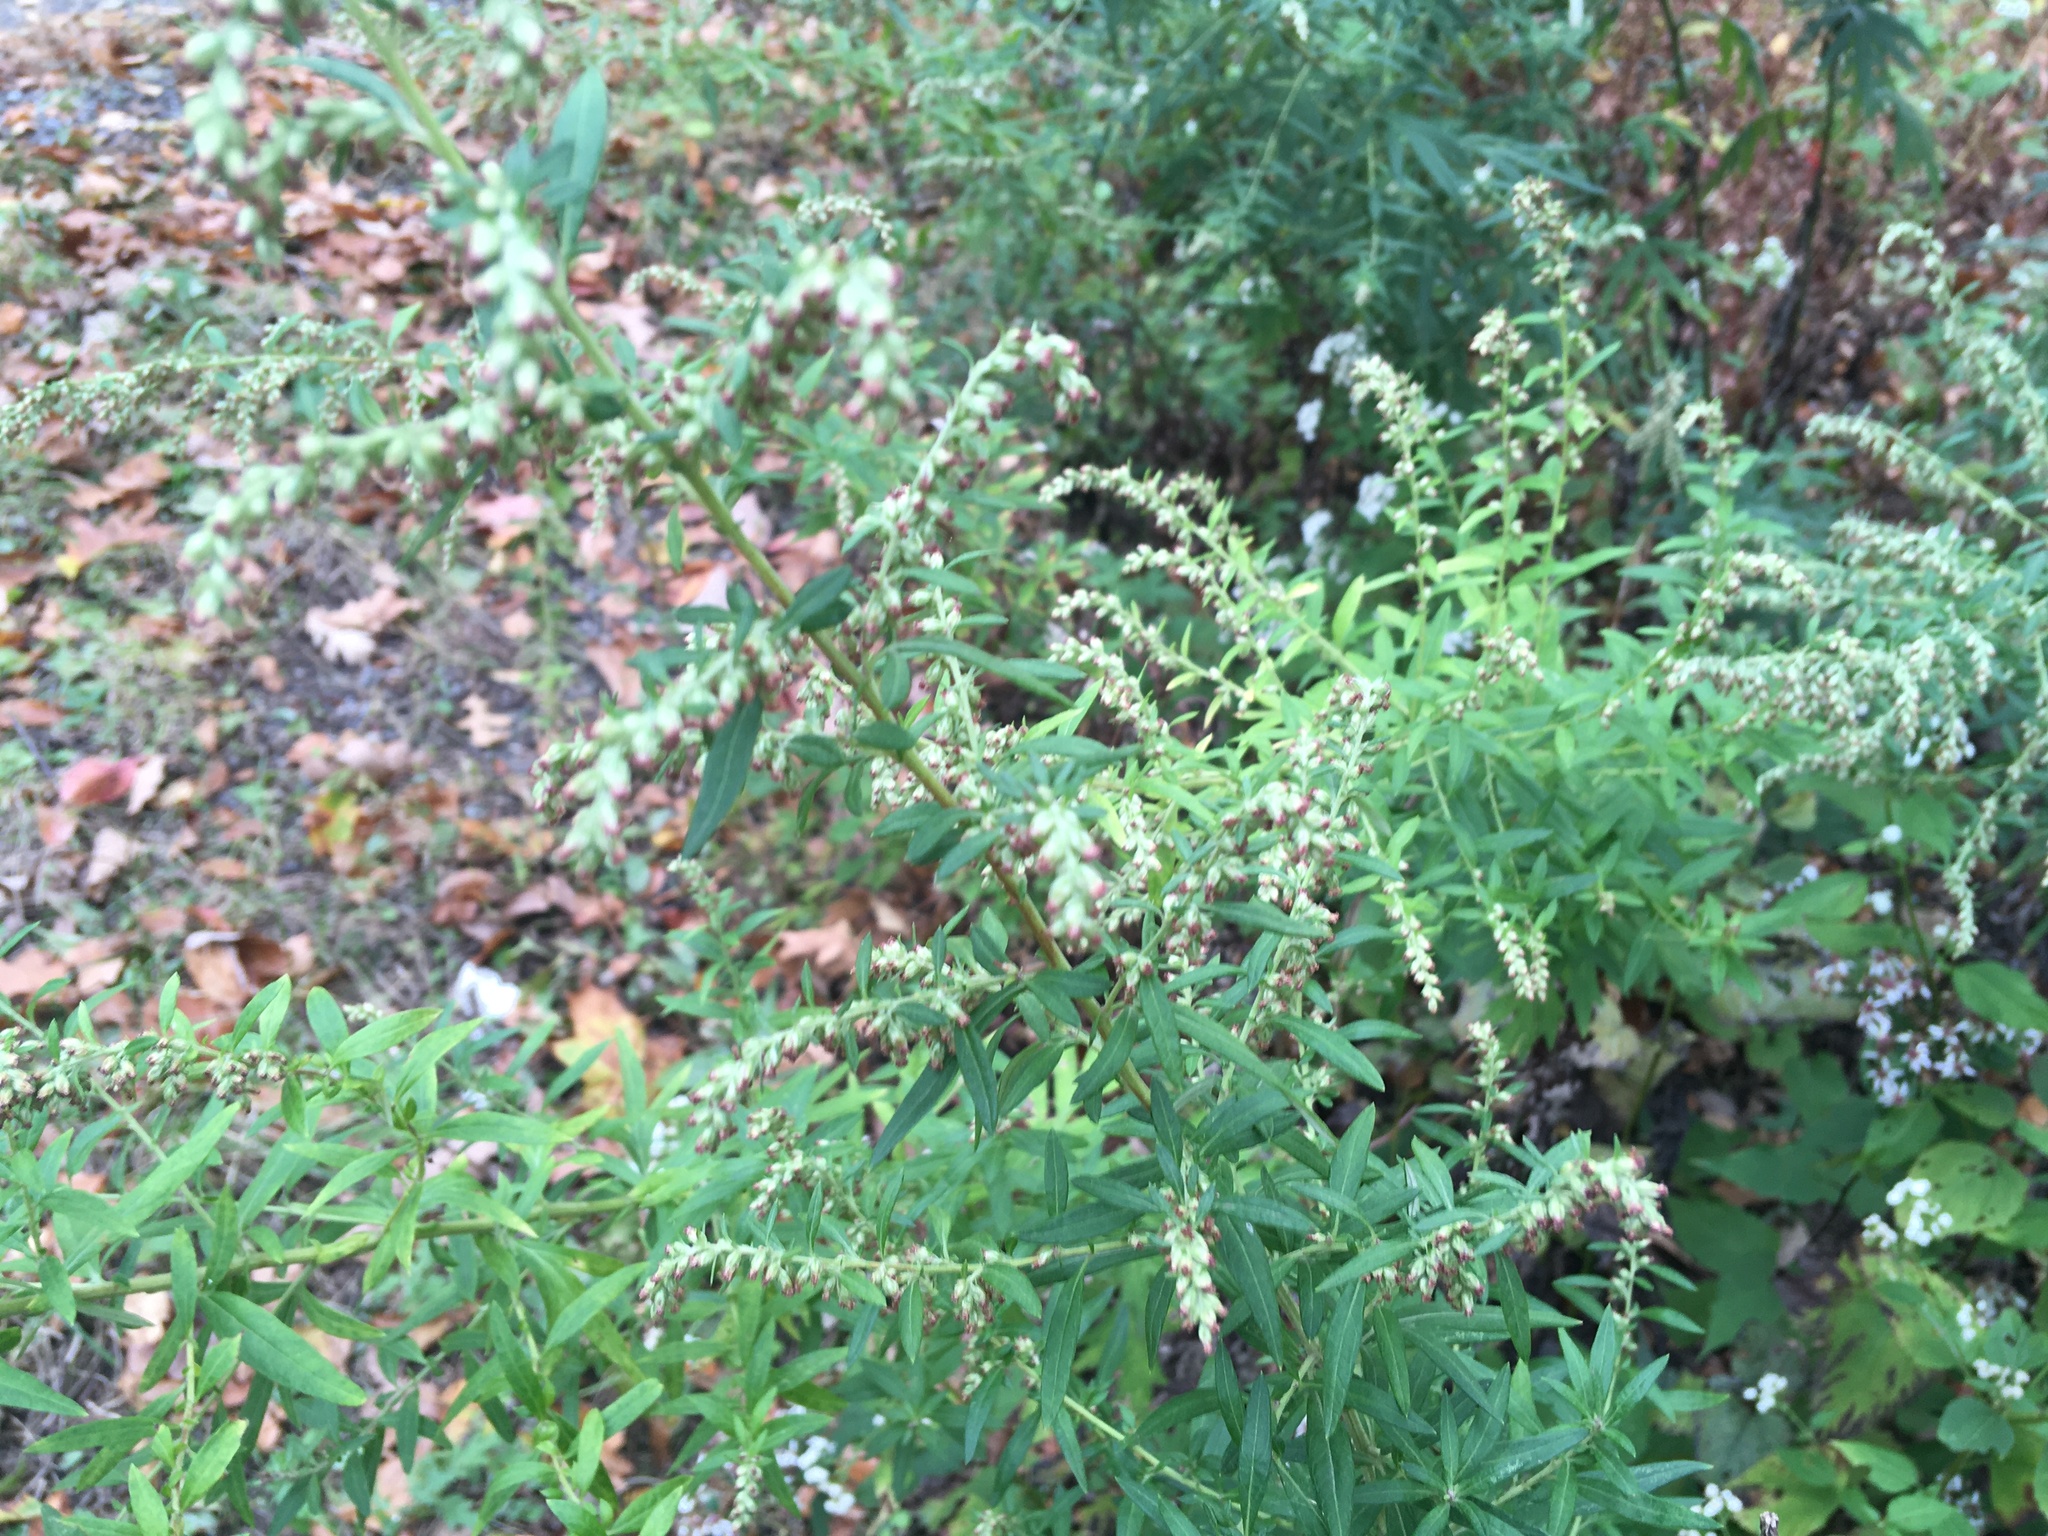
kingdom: Plantae
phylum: Tracheophyta
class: Magnoliopsida
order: Asterales
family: Asteraceae
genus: Artemisia
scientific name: Artemisia vulgaris
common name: Mugwort
